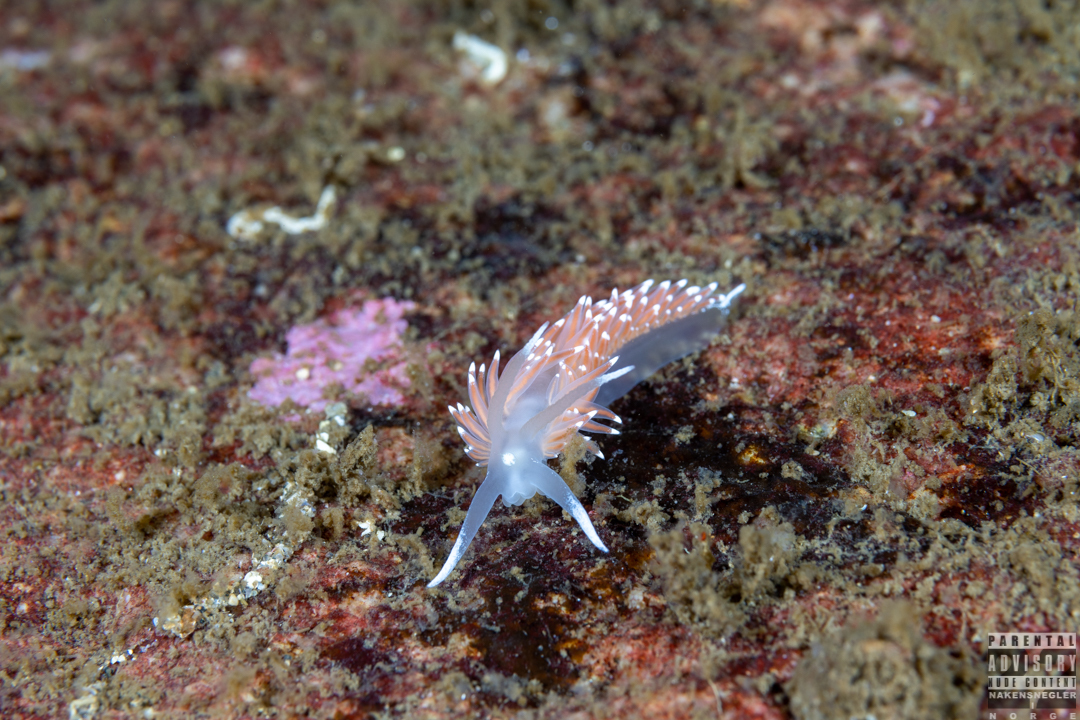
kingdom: Animalia
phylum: Mollusca
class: Gastropoda
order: Nudibranchia
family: Coryphellidae
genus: Coryphella
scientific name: Coryphella nobilis
